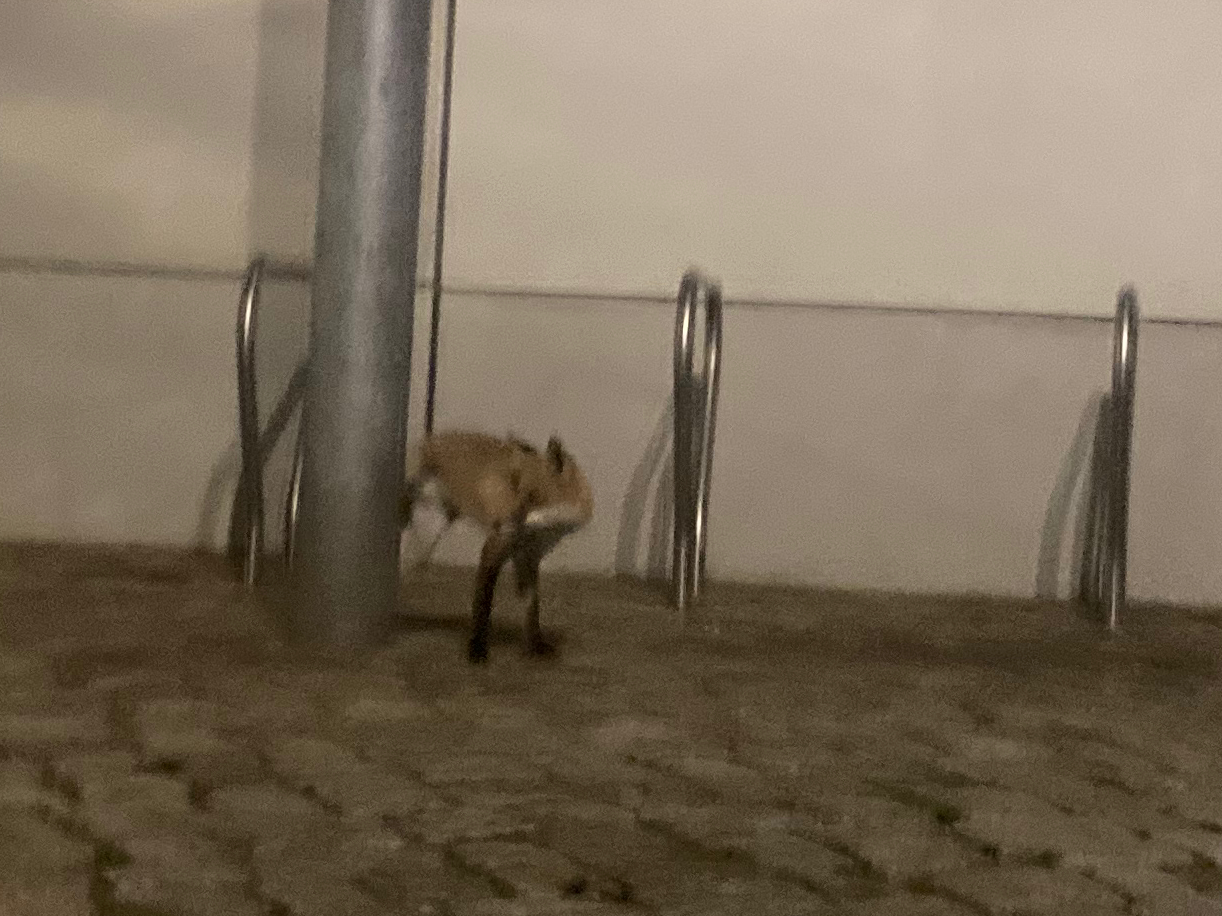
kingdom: Animalia
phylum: Chordata
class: Mammalia
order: Carnivora
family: Canidae
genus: Vulpes
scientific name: Vulpes vulpes
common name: Red fox
